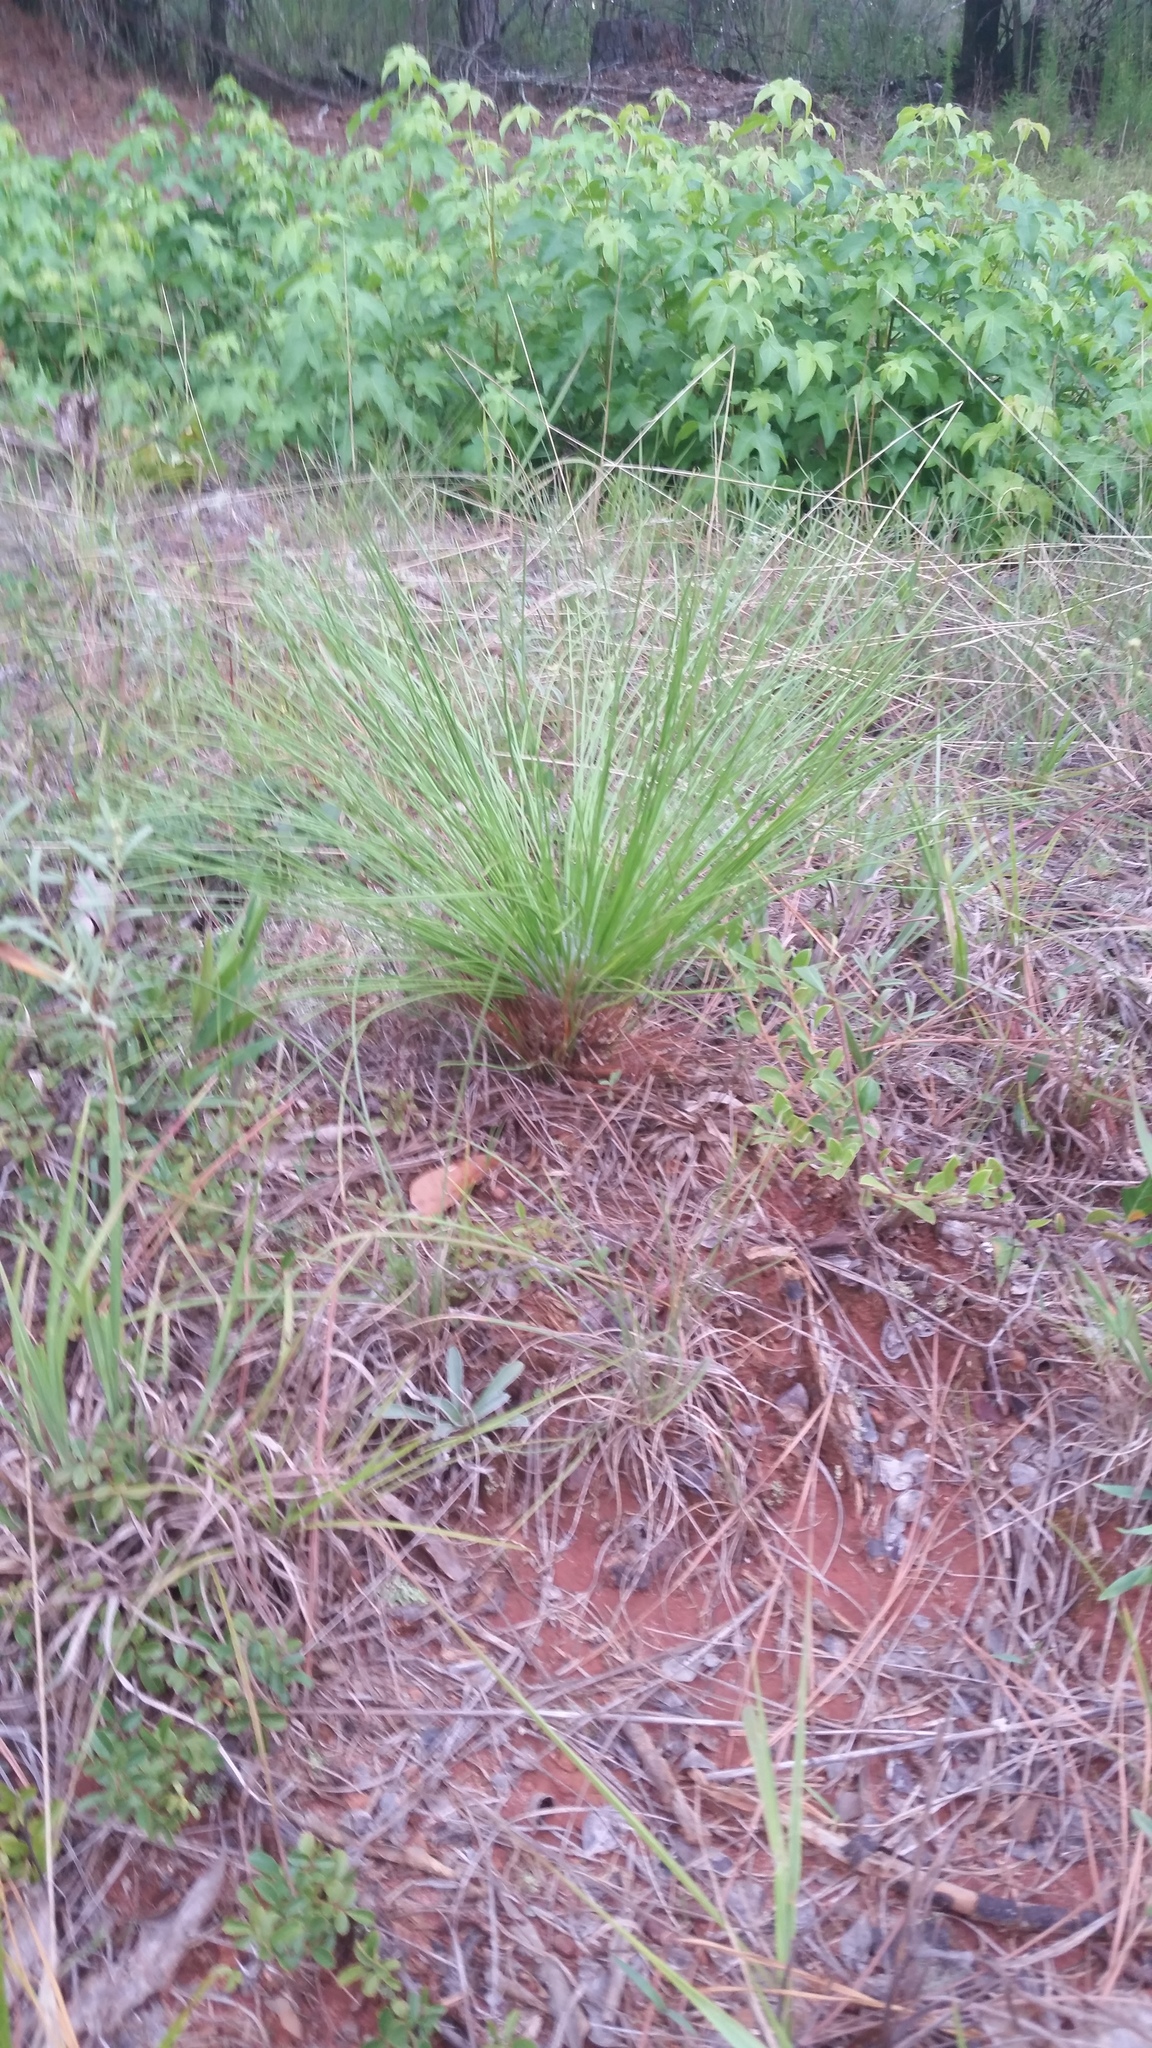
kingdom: Plantae
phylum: Tracheophyta
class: Pinopsida
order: Pinales
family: Pinaceae
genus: Pinus
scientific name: Pinus palustris
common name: Longleaf pine
